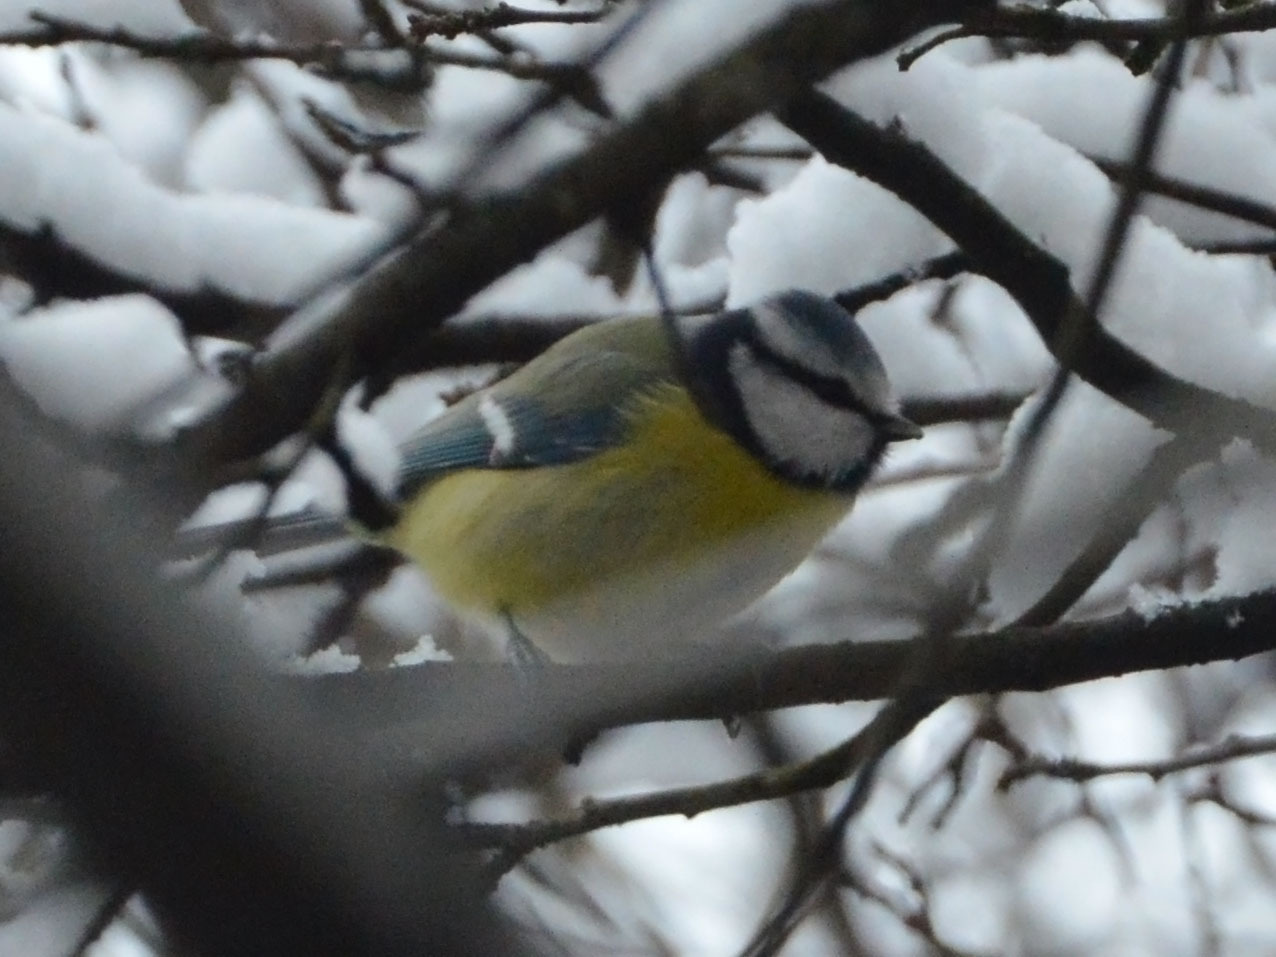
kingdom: Animalia
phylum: Chordata
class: Aves
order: Passeriformes
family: Paridae
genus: Cyanistes
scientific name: Cyanistes caeruleus
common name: Eurasian blue tit
